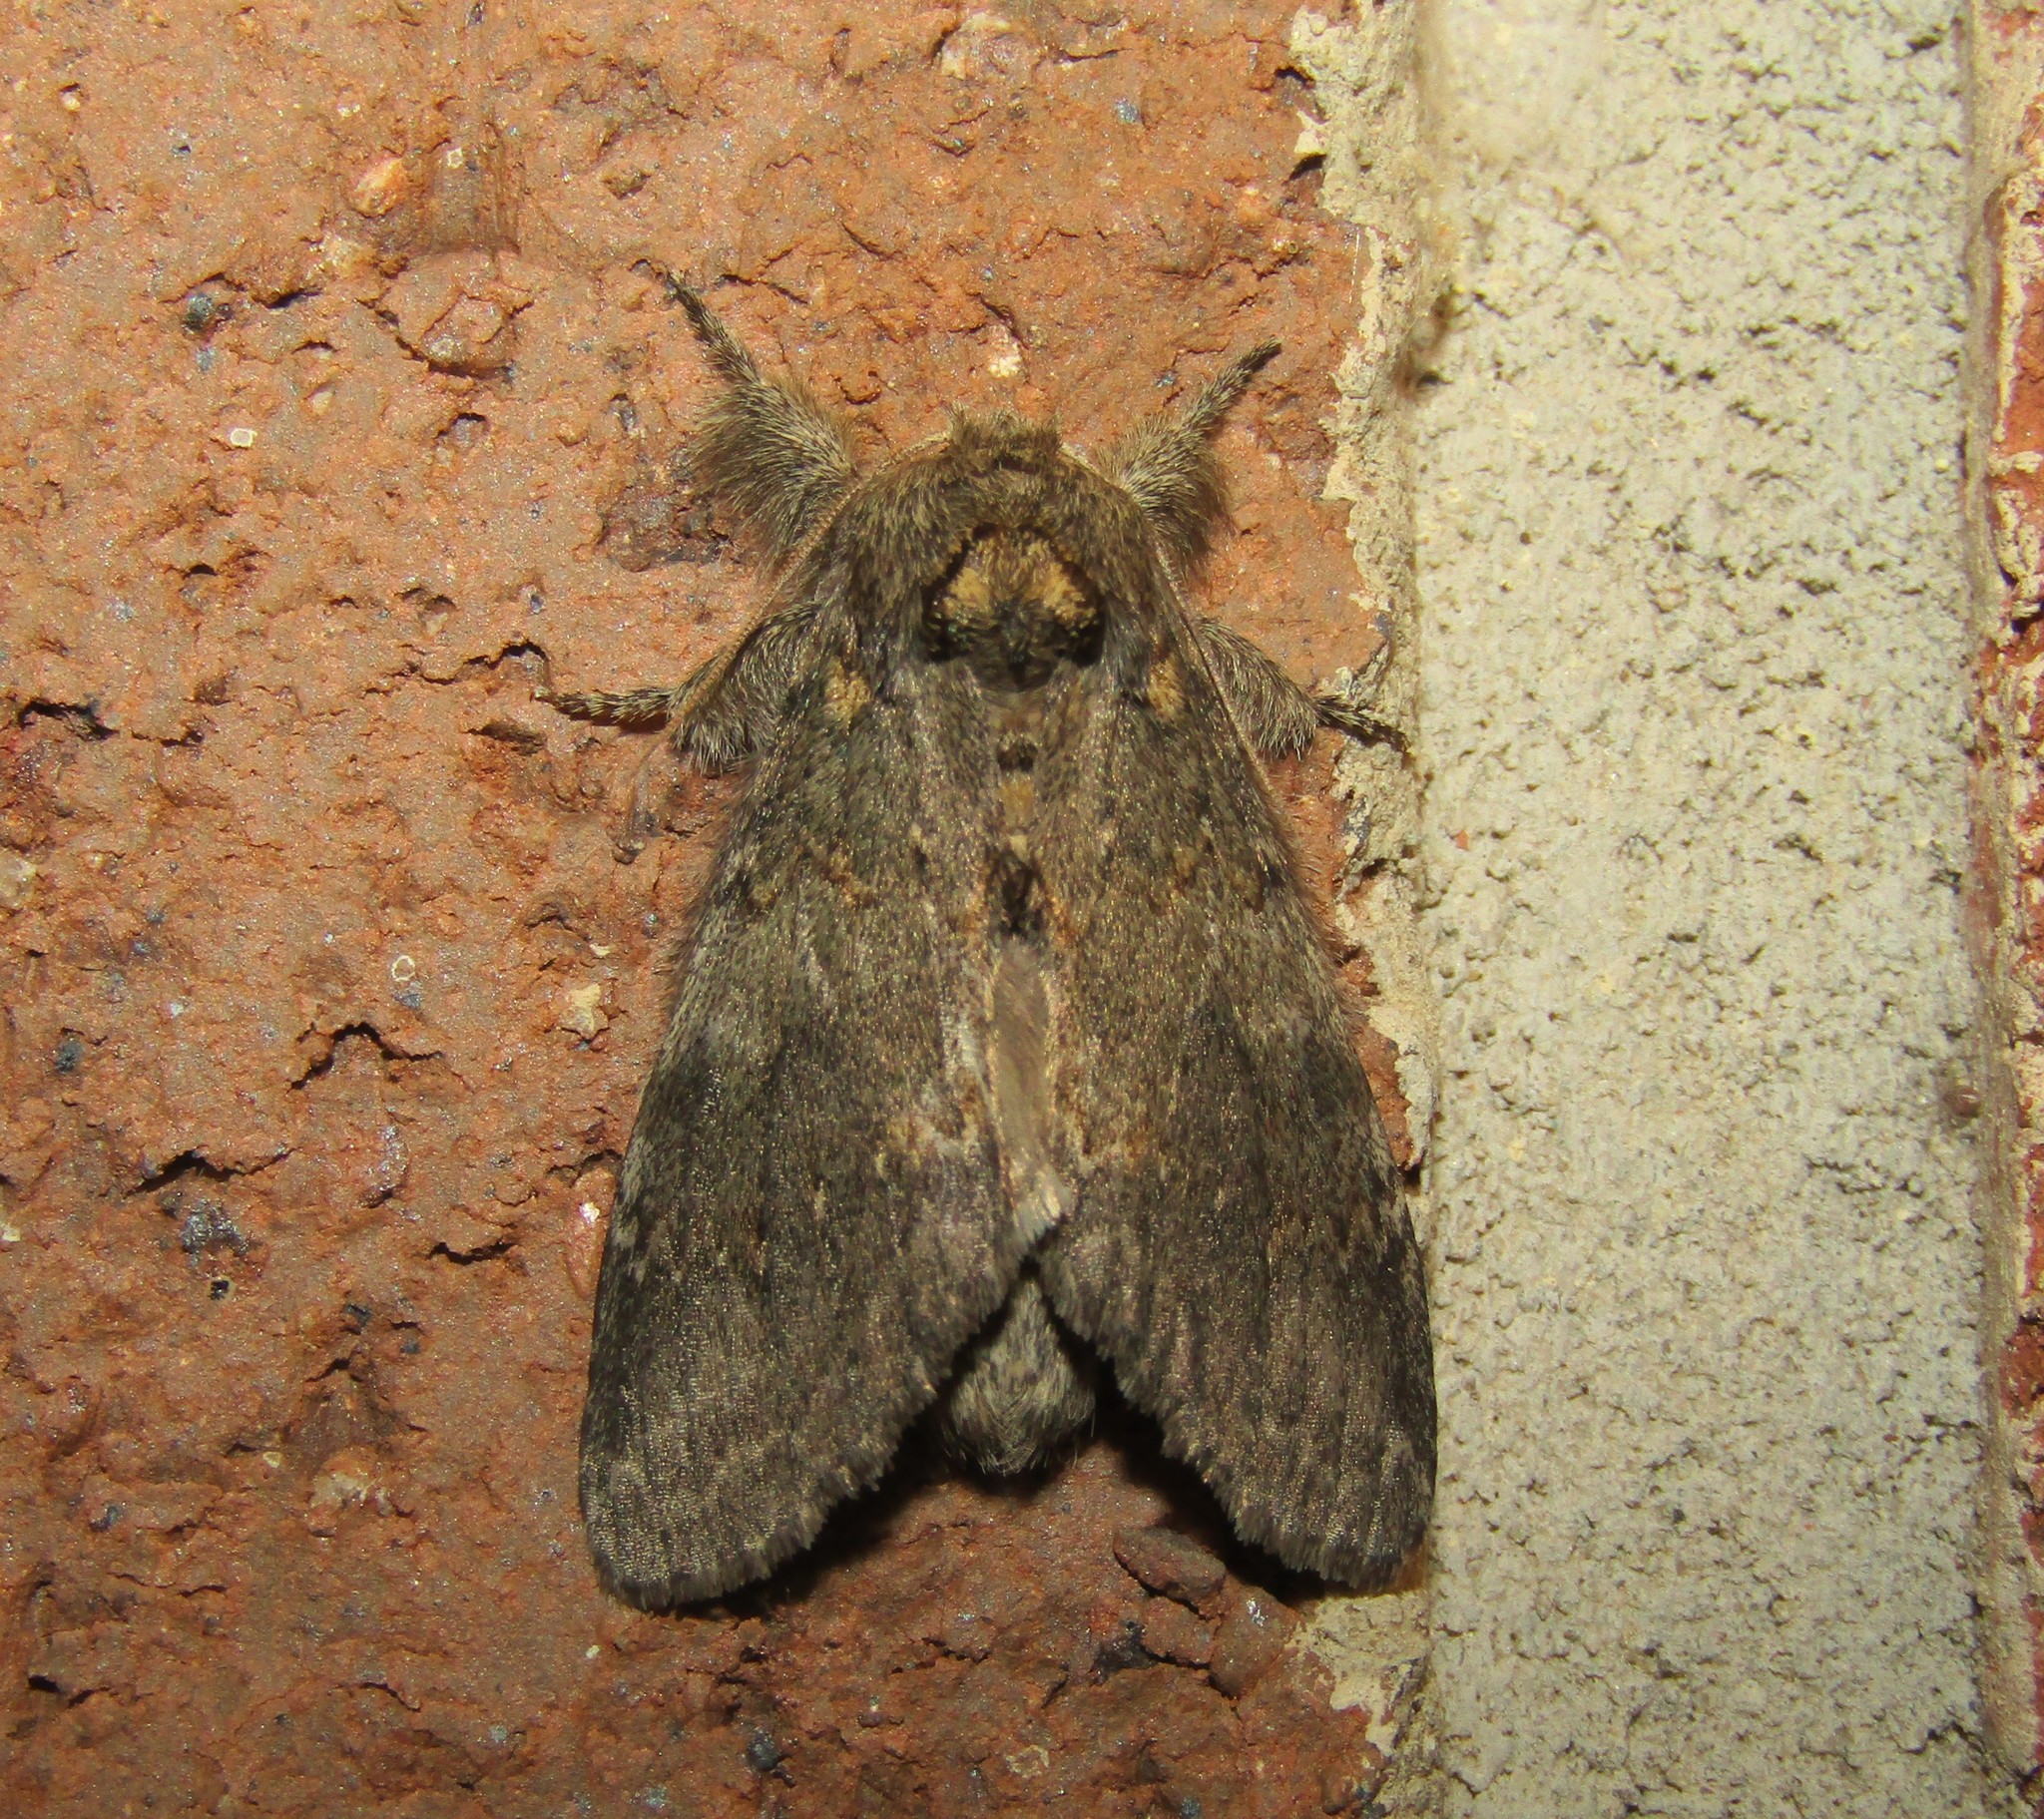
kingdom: Animalia
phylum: Arthropoda
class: Insecta
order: Lepidoptera
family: Notodontidae
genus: Peridea
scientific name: Peridea angulosa
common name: Angulose prominent
